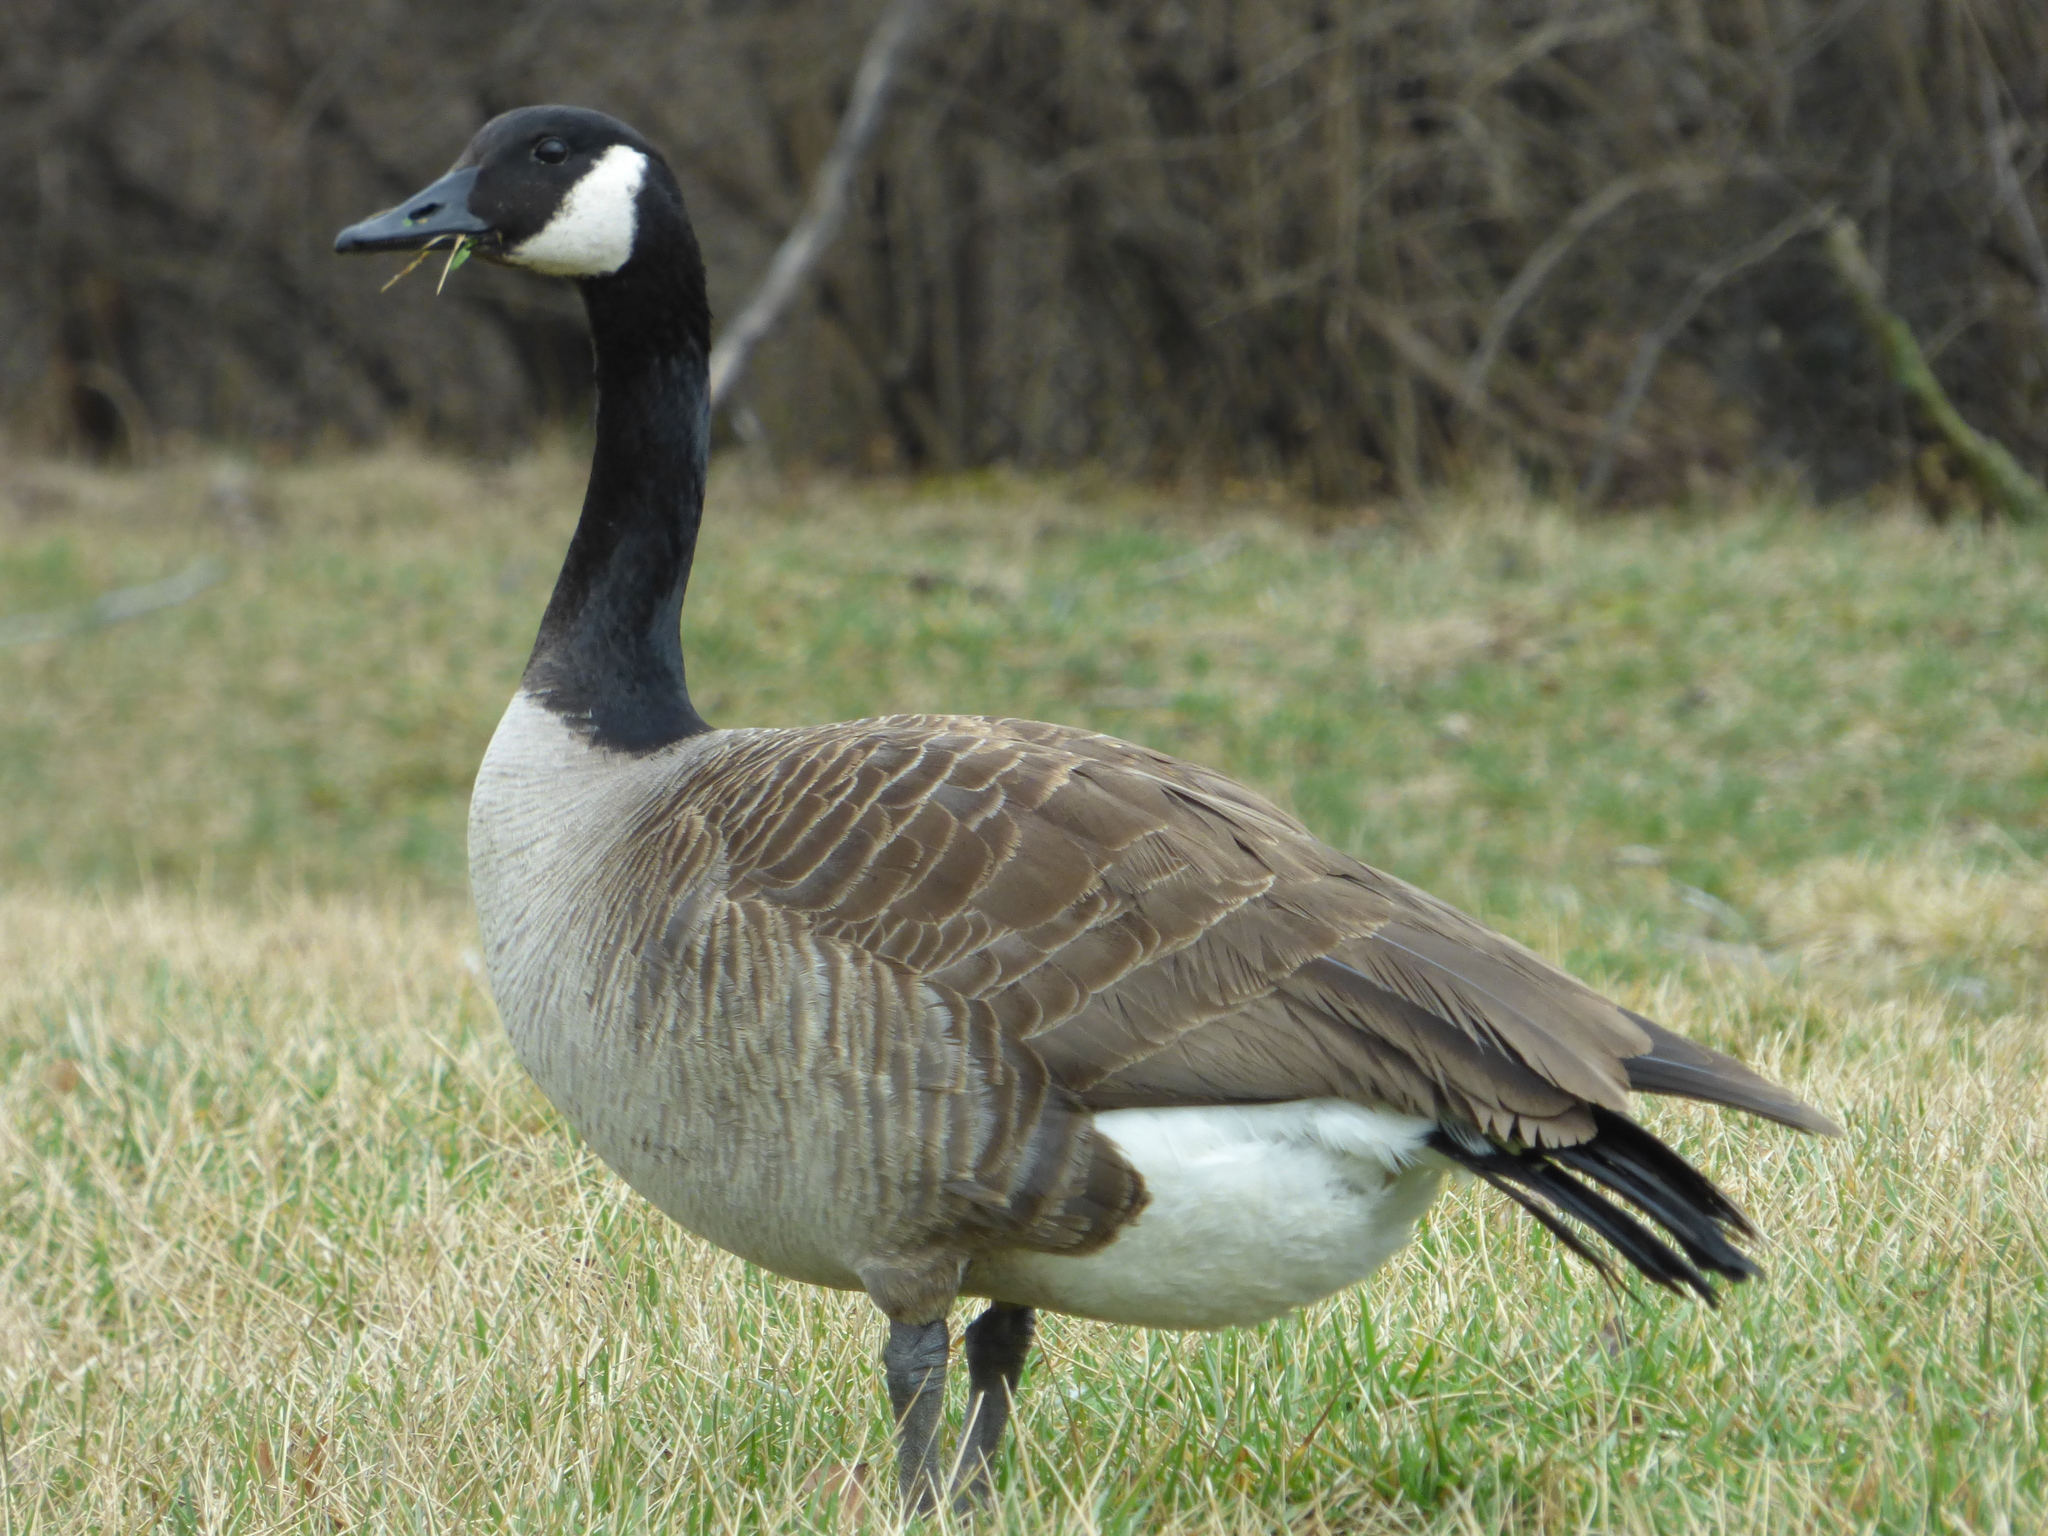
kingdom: Animalia
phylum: Chordata
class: Aves
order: Anseriformes
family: Anatidae
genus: Branta
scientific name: Branta canadensis
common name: Canada goose
